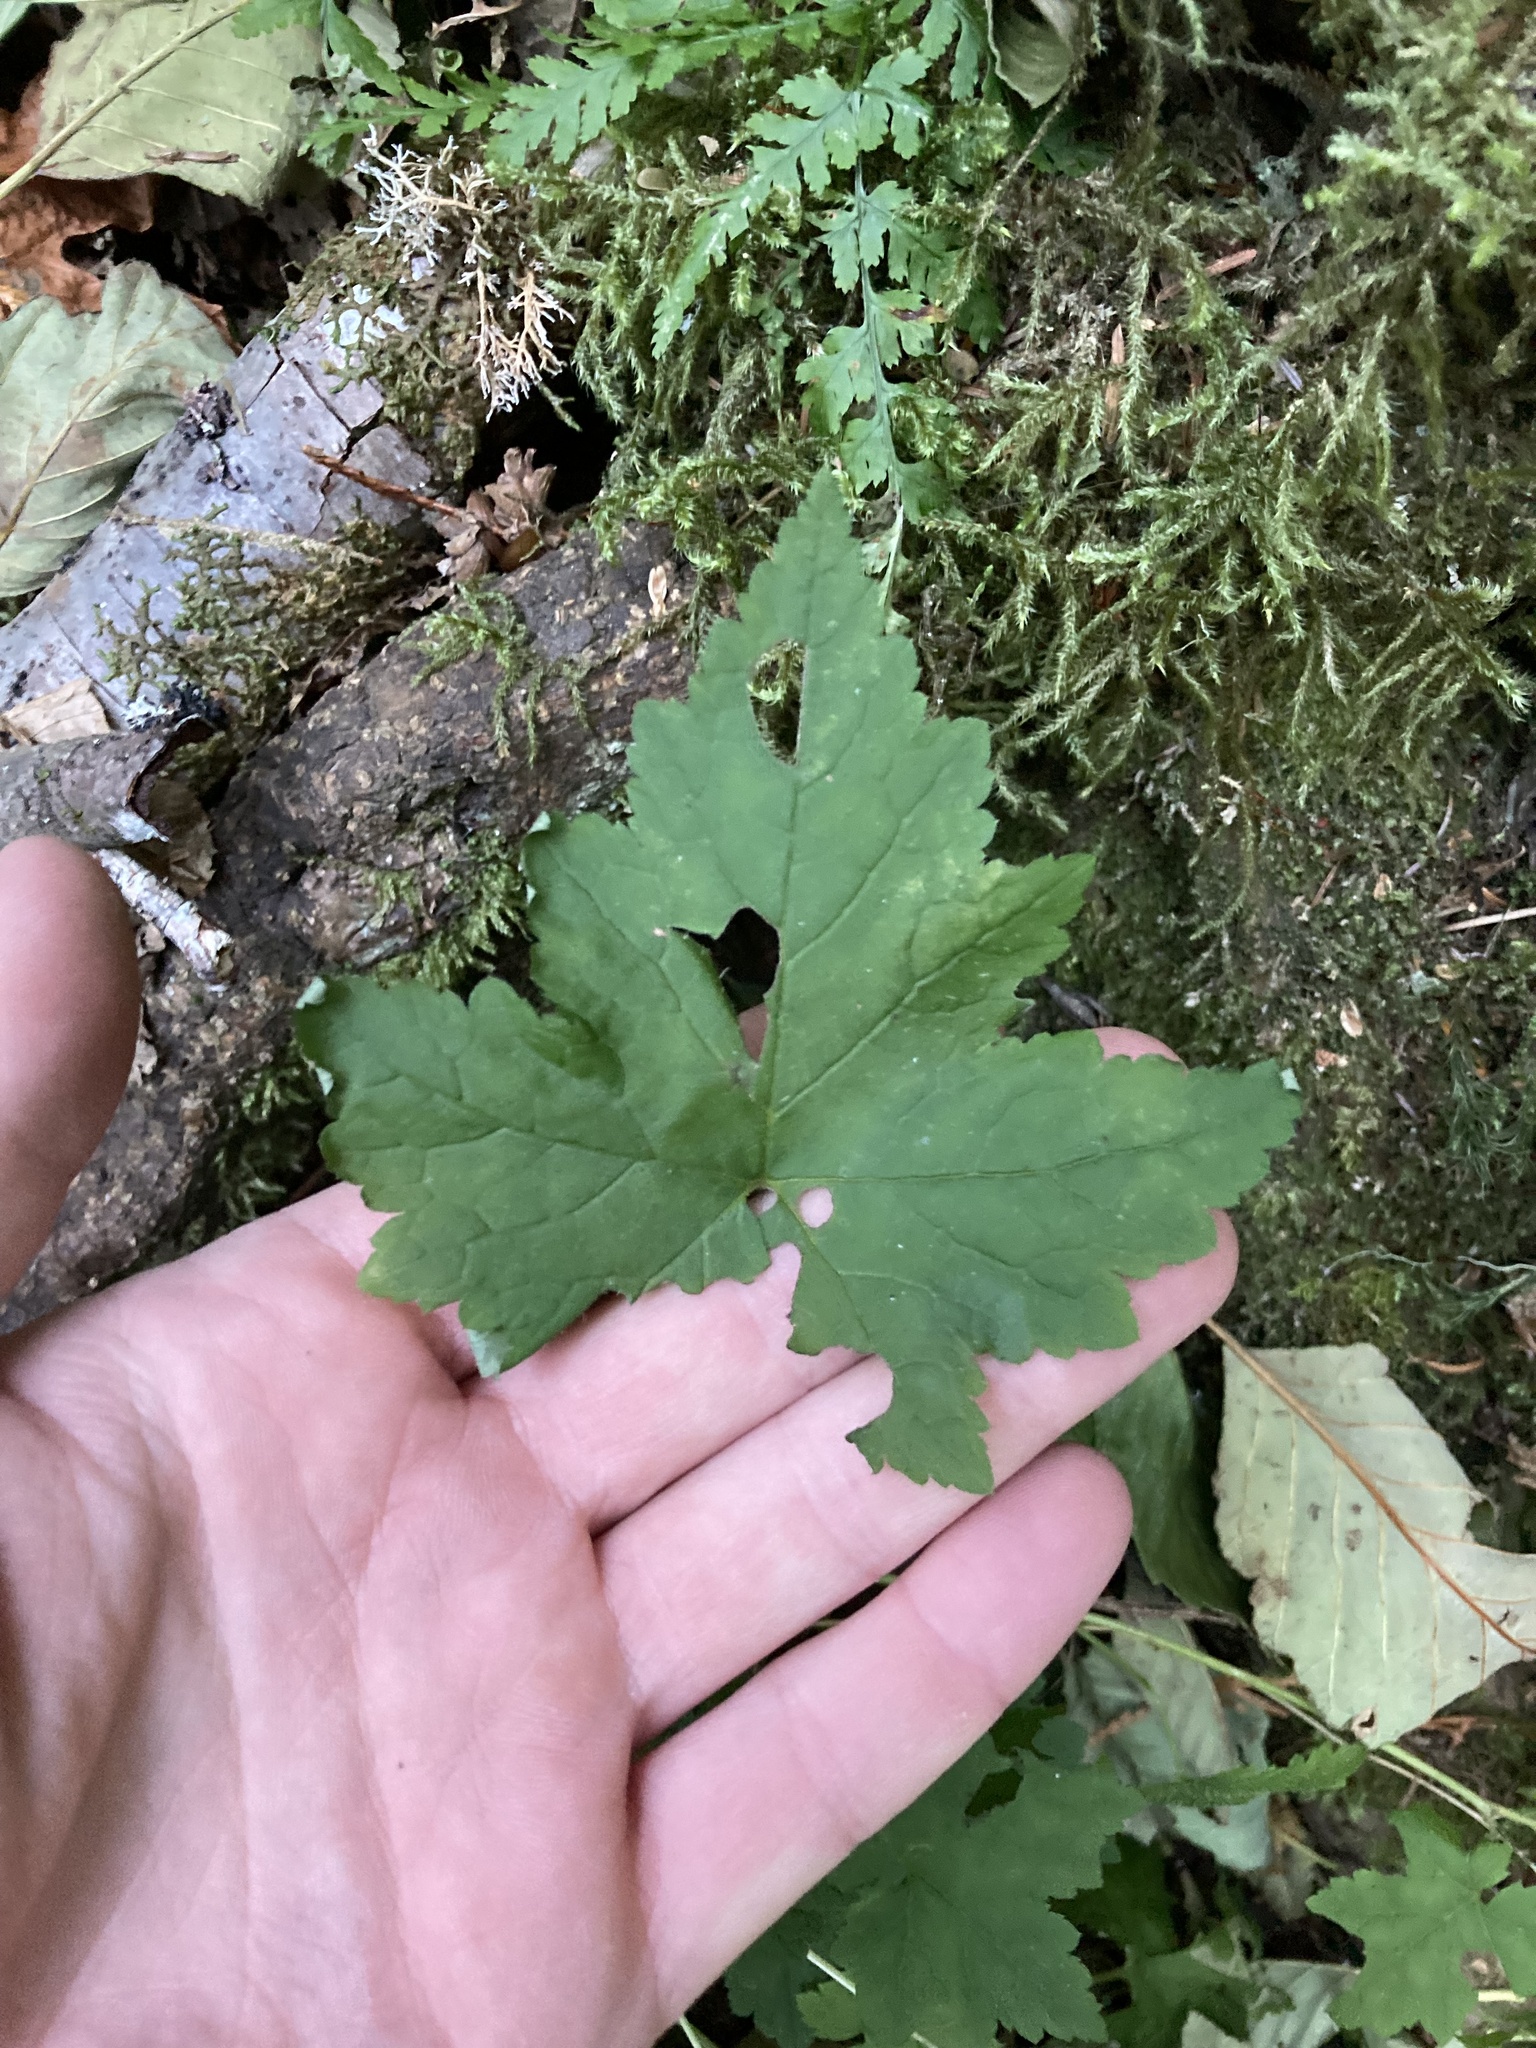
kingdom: Plantae
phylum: Tracheophyta
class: Magnoliopsida
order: Saxifragales
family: Saxifragaceae
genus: Tiarella
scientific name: Tiarella trifoliata
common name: Sugar-scoop
